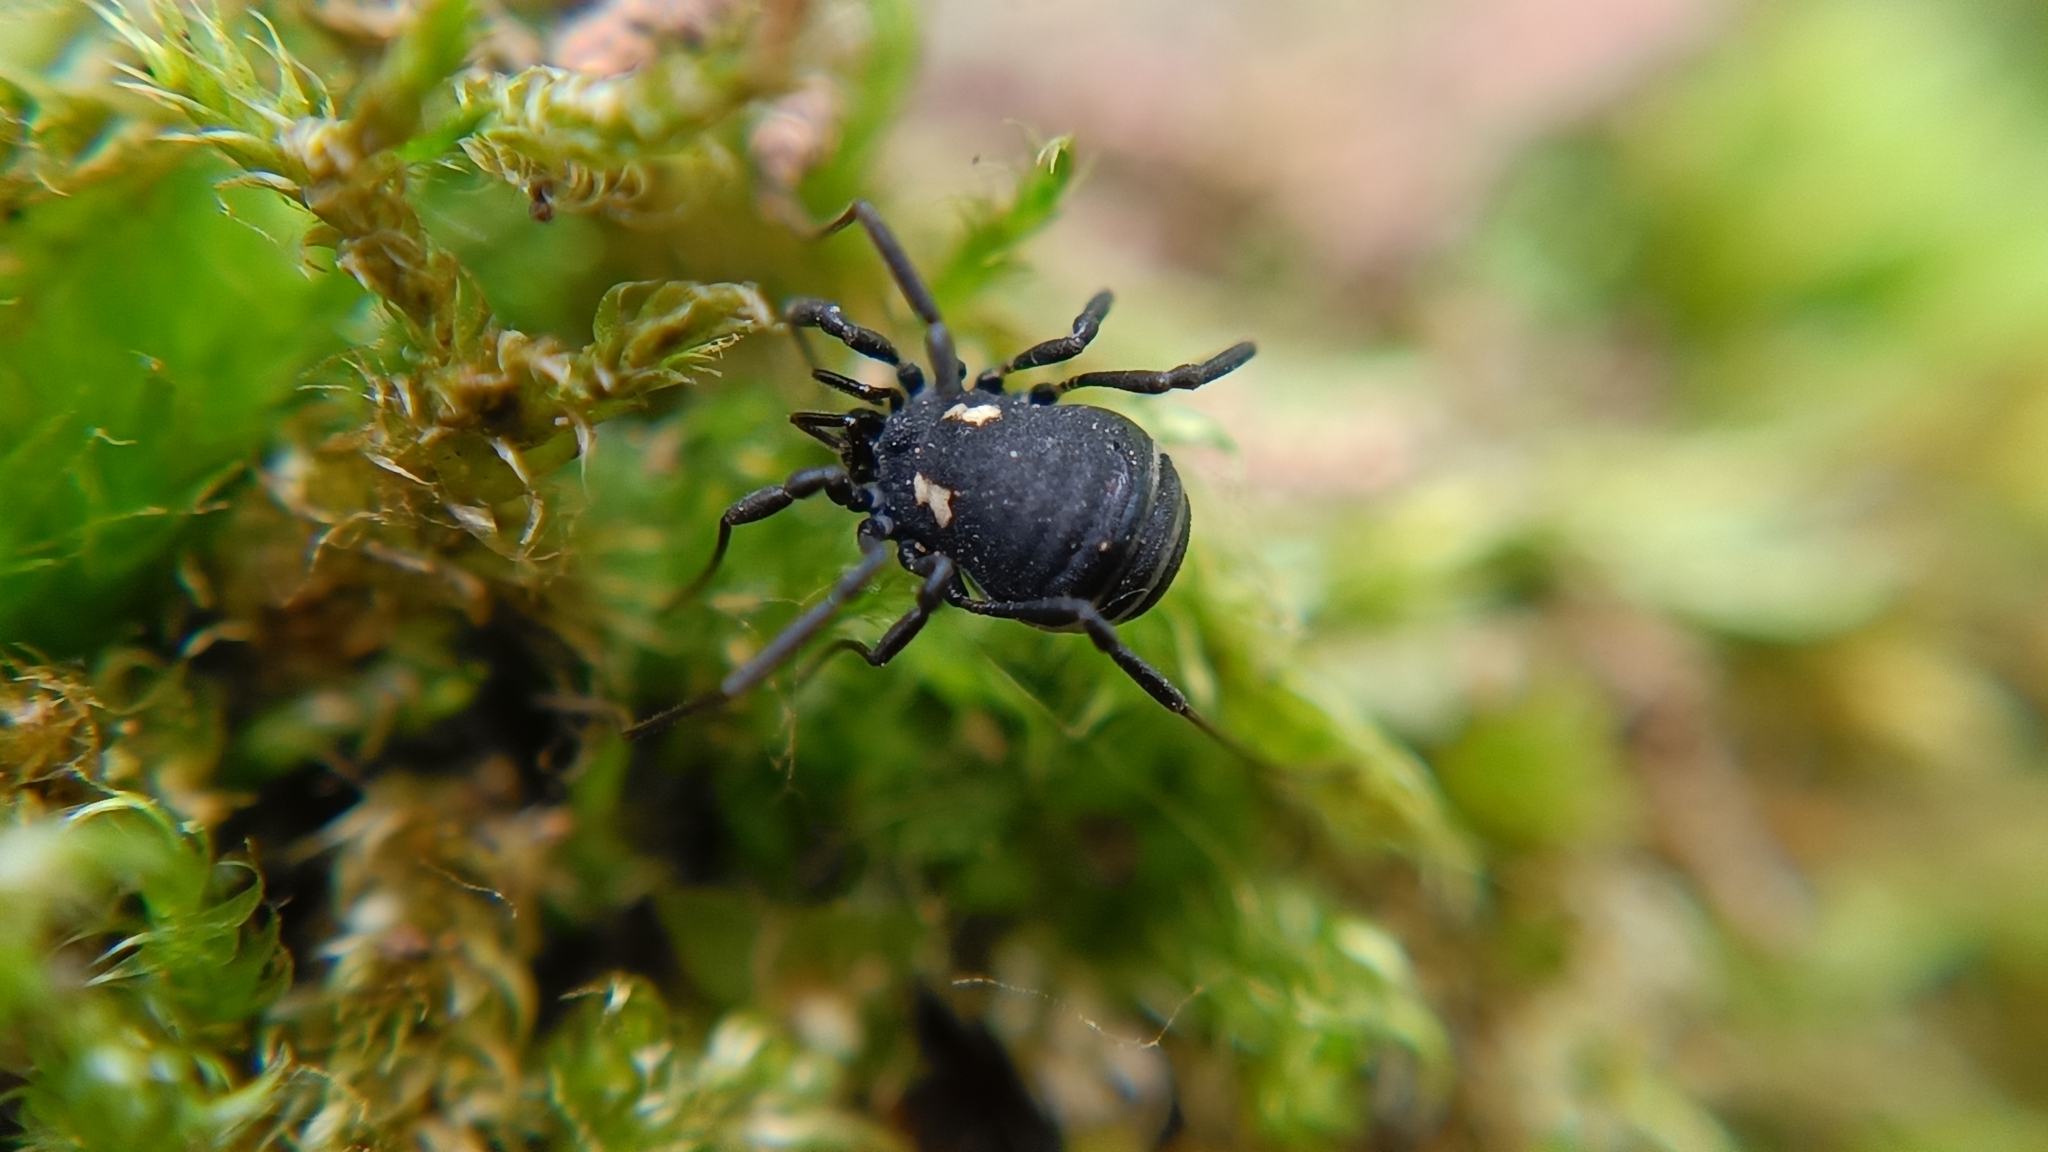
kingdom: Animalia
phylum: Arthropoda
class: Arachnida
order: Opiliones
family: Nemastomatidae
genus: Nemastoma
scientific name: Nemastoma bimaculatum
